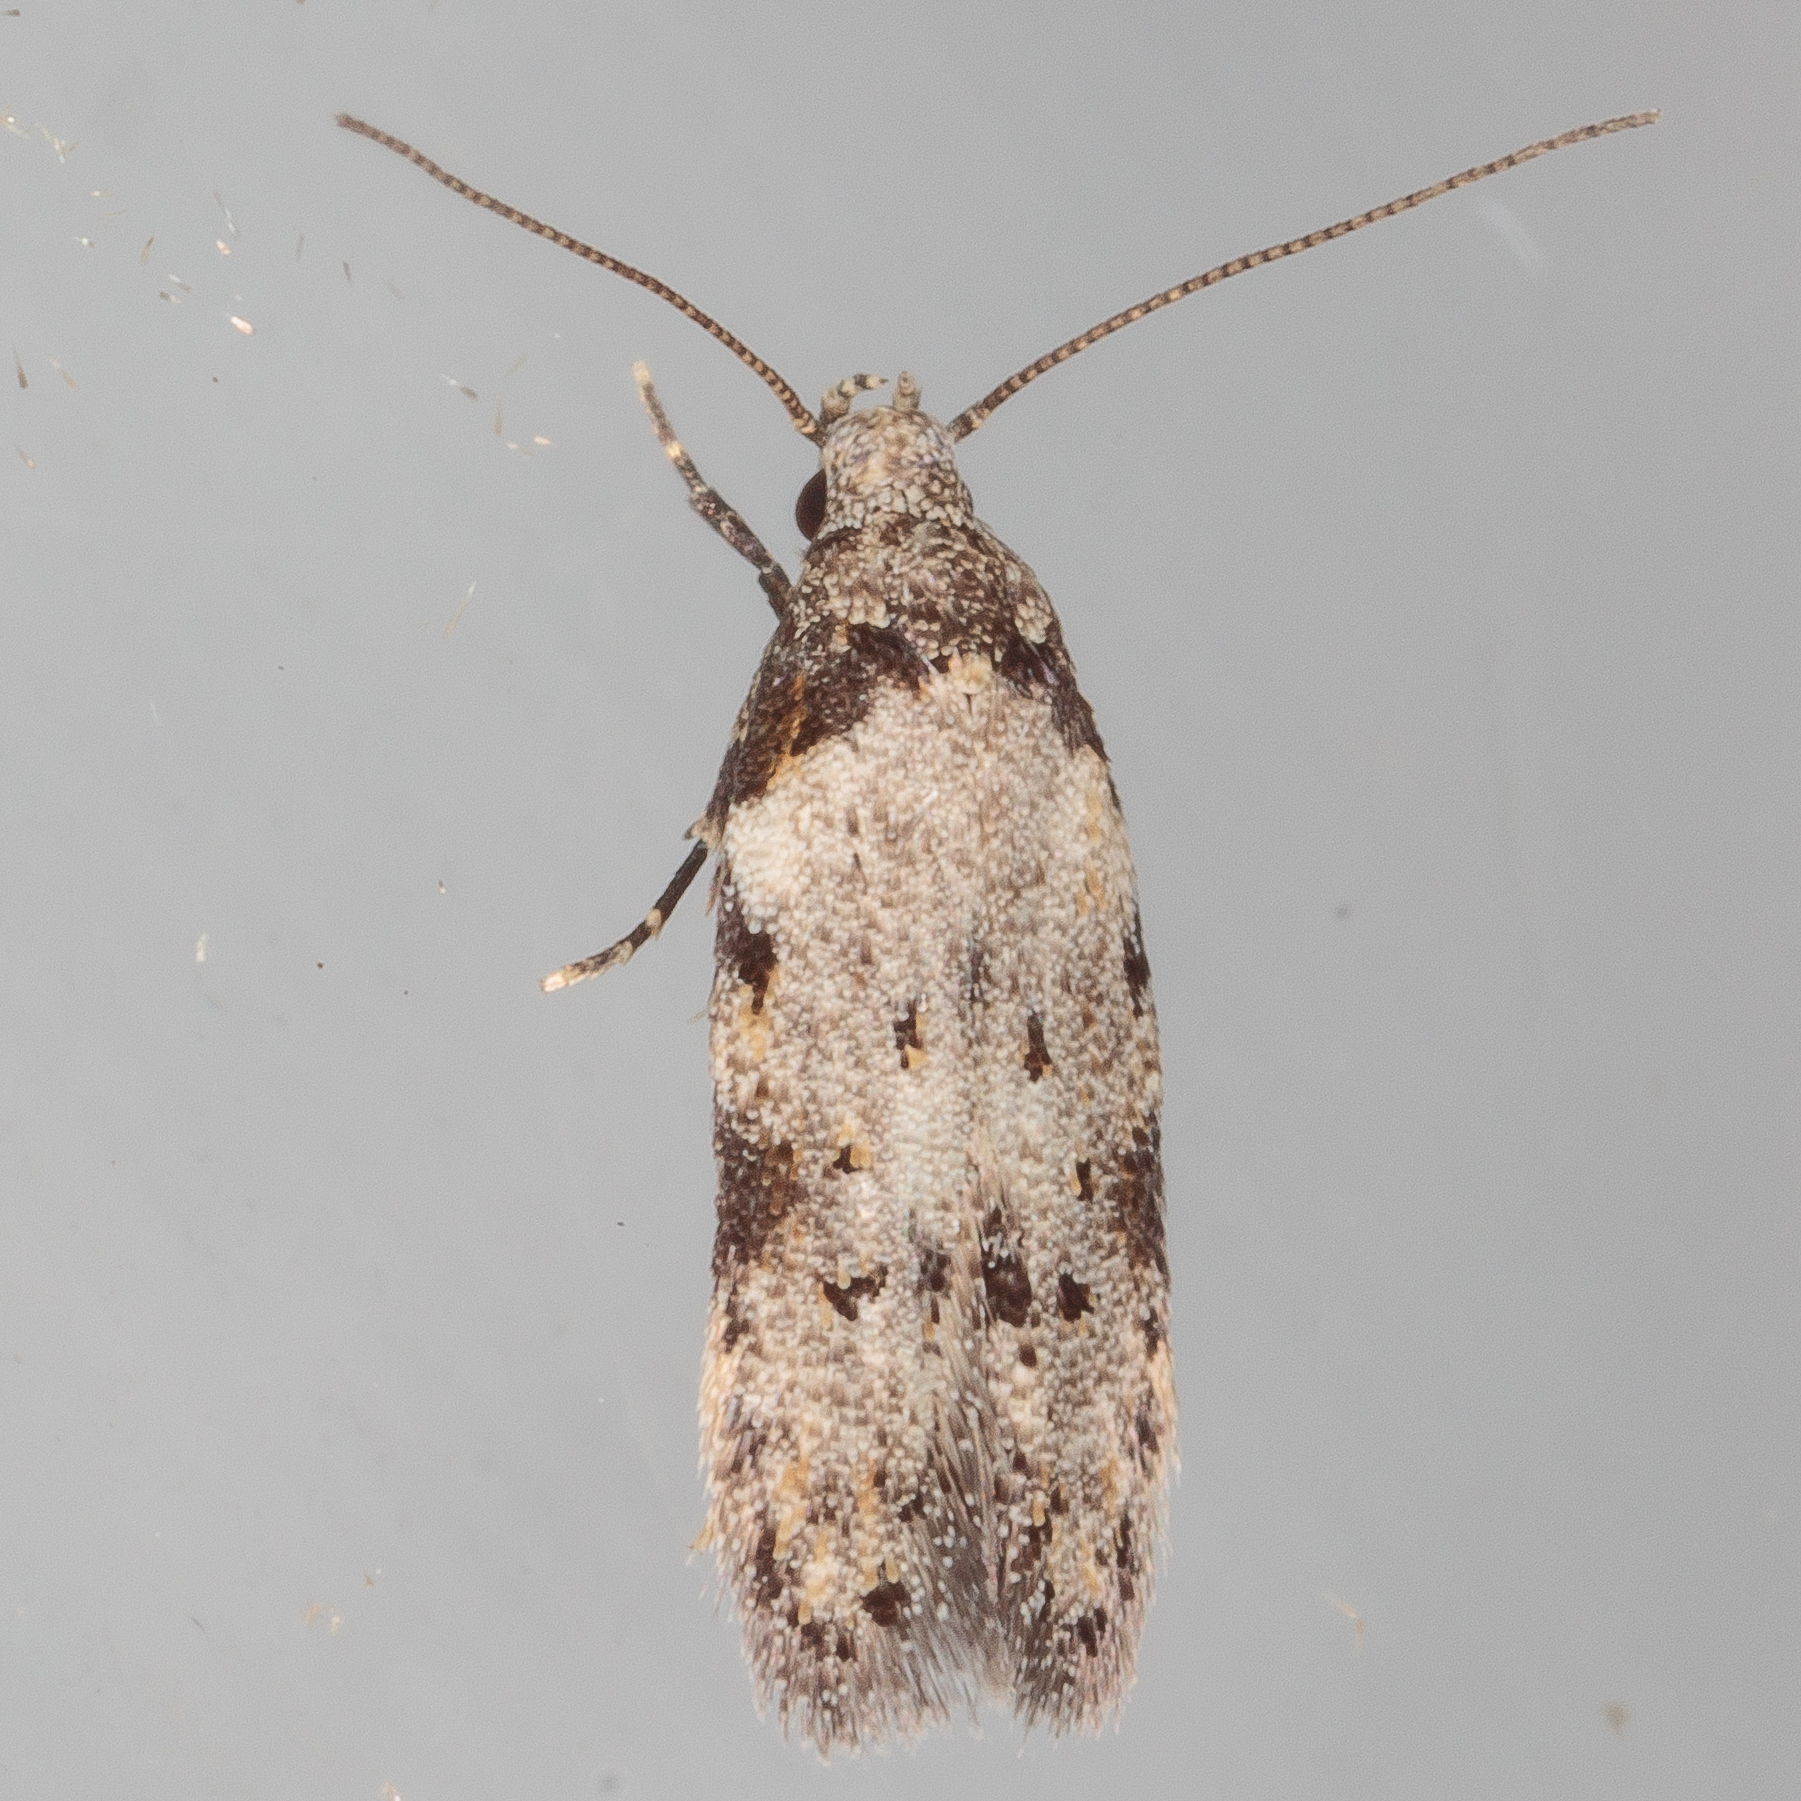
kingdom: Animalia
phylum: Arthropoda
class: Insecta
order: Lepidoptera
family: Autostichidae
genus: Taygete
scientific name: Taygete attributella
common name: Triangle-marked twirler moth
